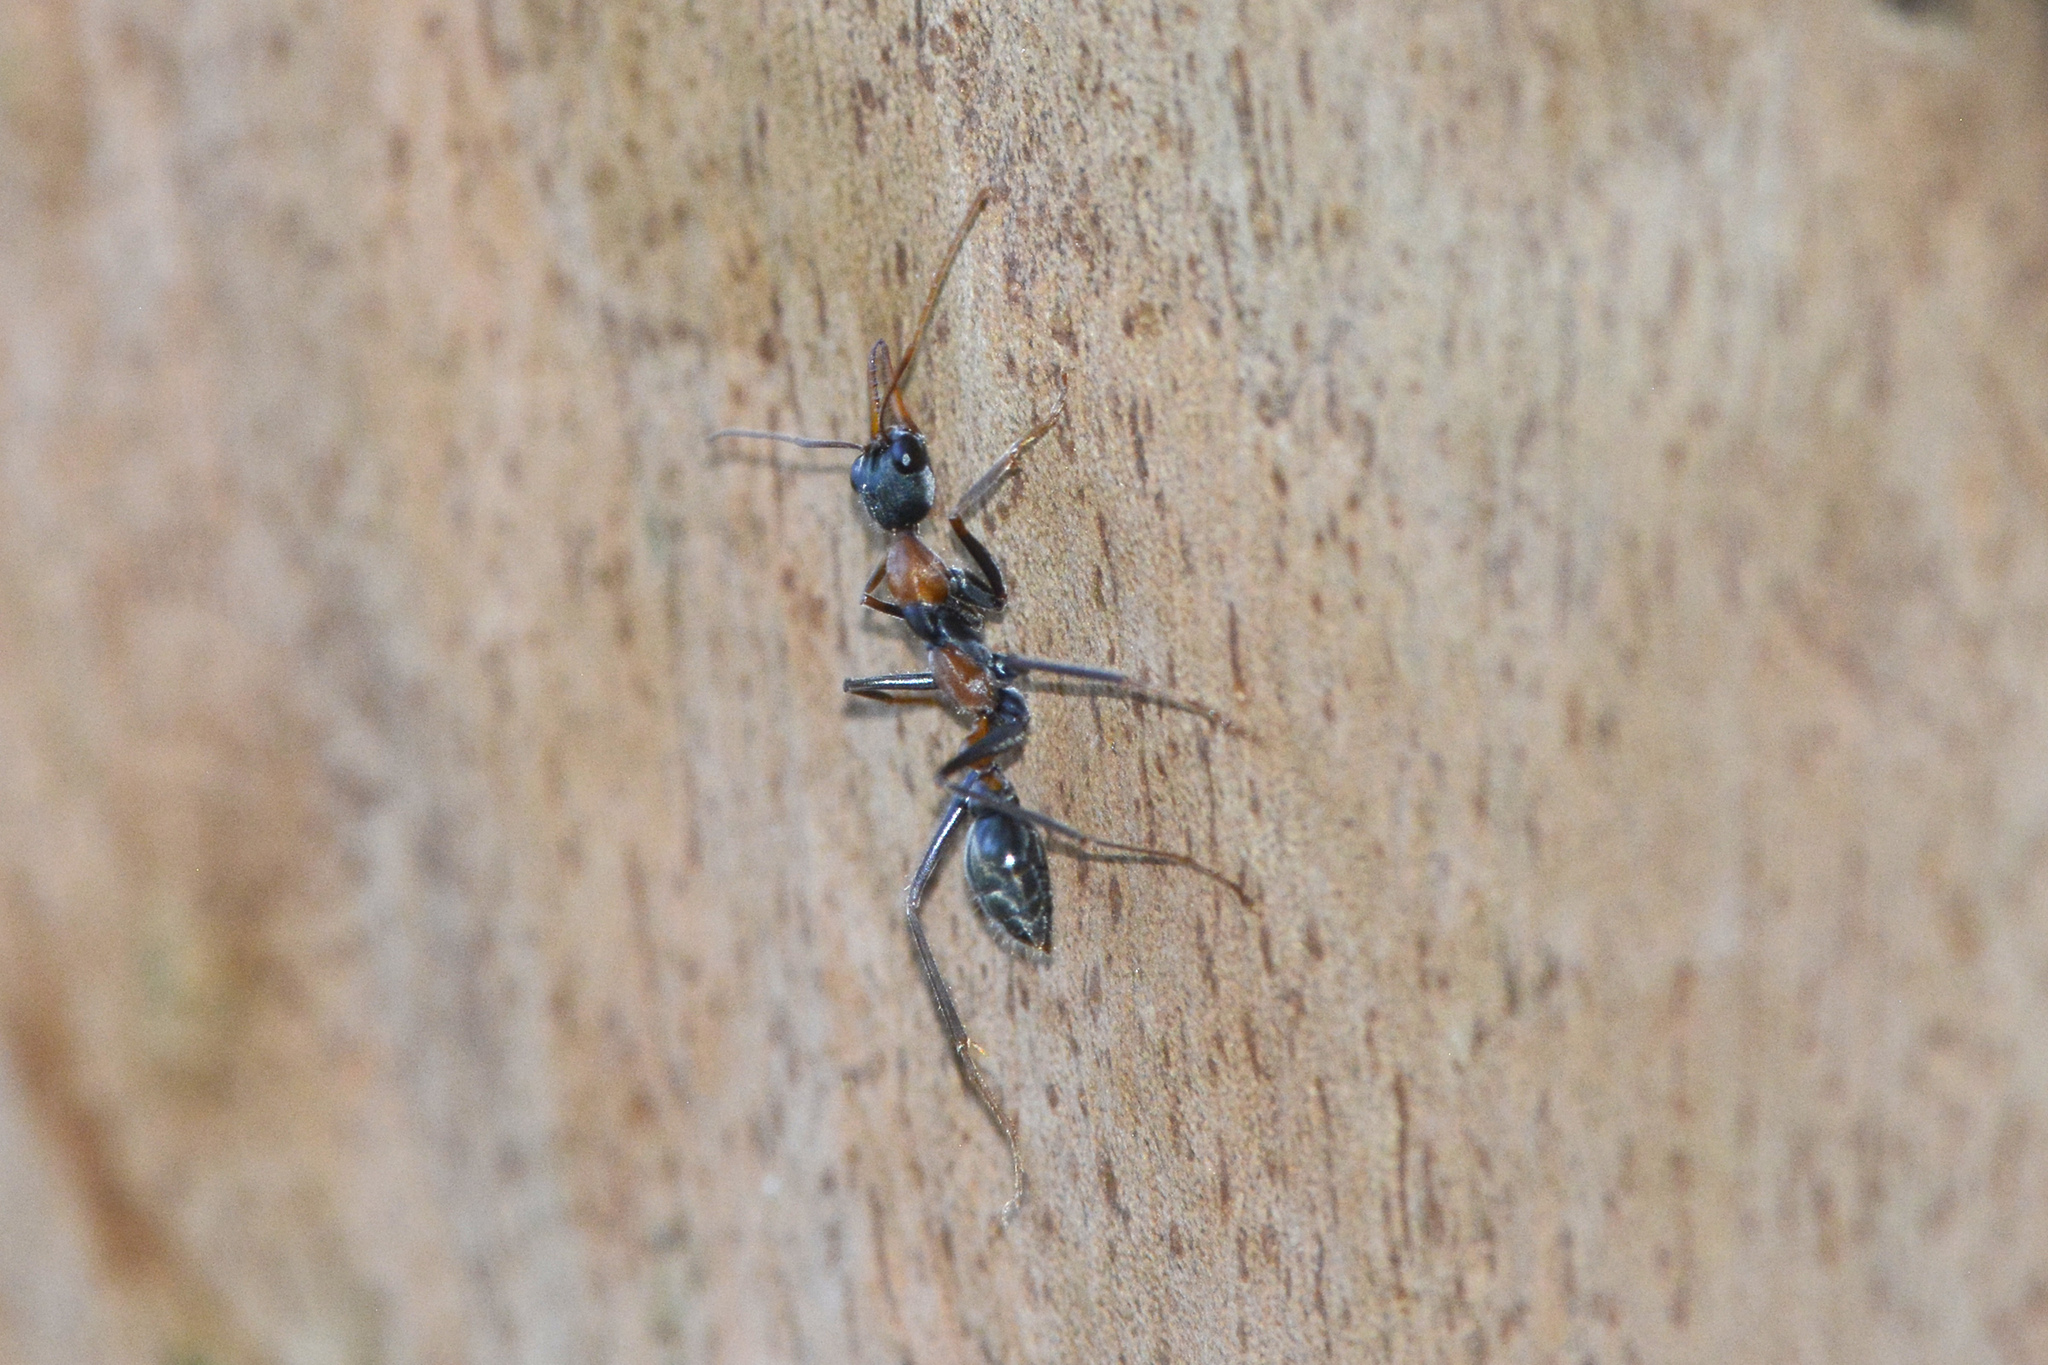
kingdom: Animalia
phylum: Arthropoda
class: Insecta
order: Hymenoptera
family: Formicidae
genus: Myrmecia
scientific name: Myrmecia nigrocincta
